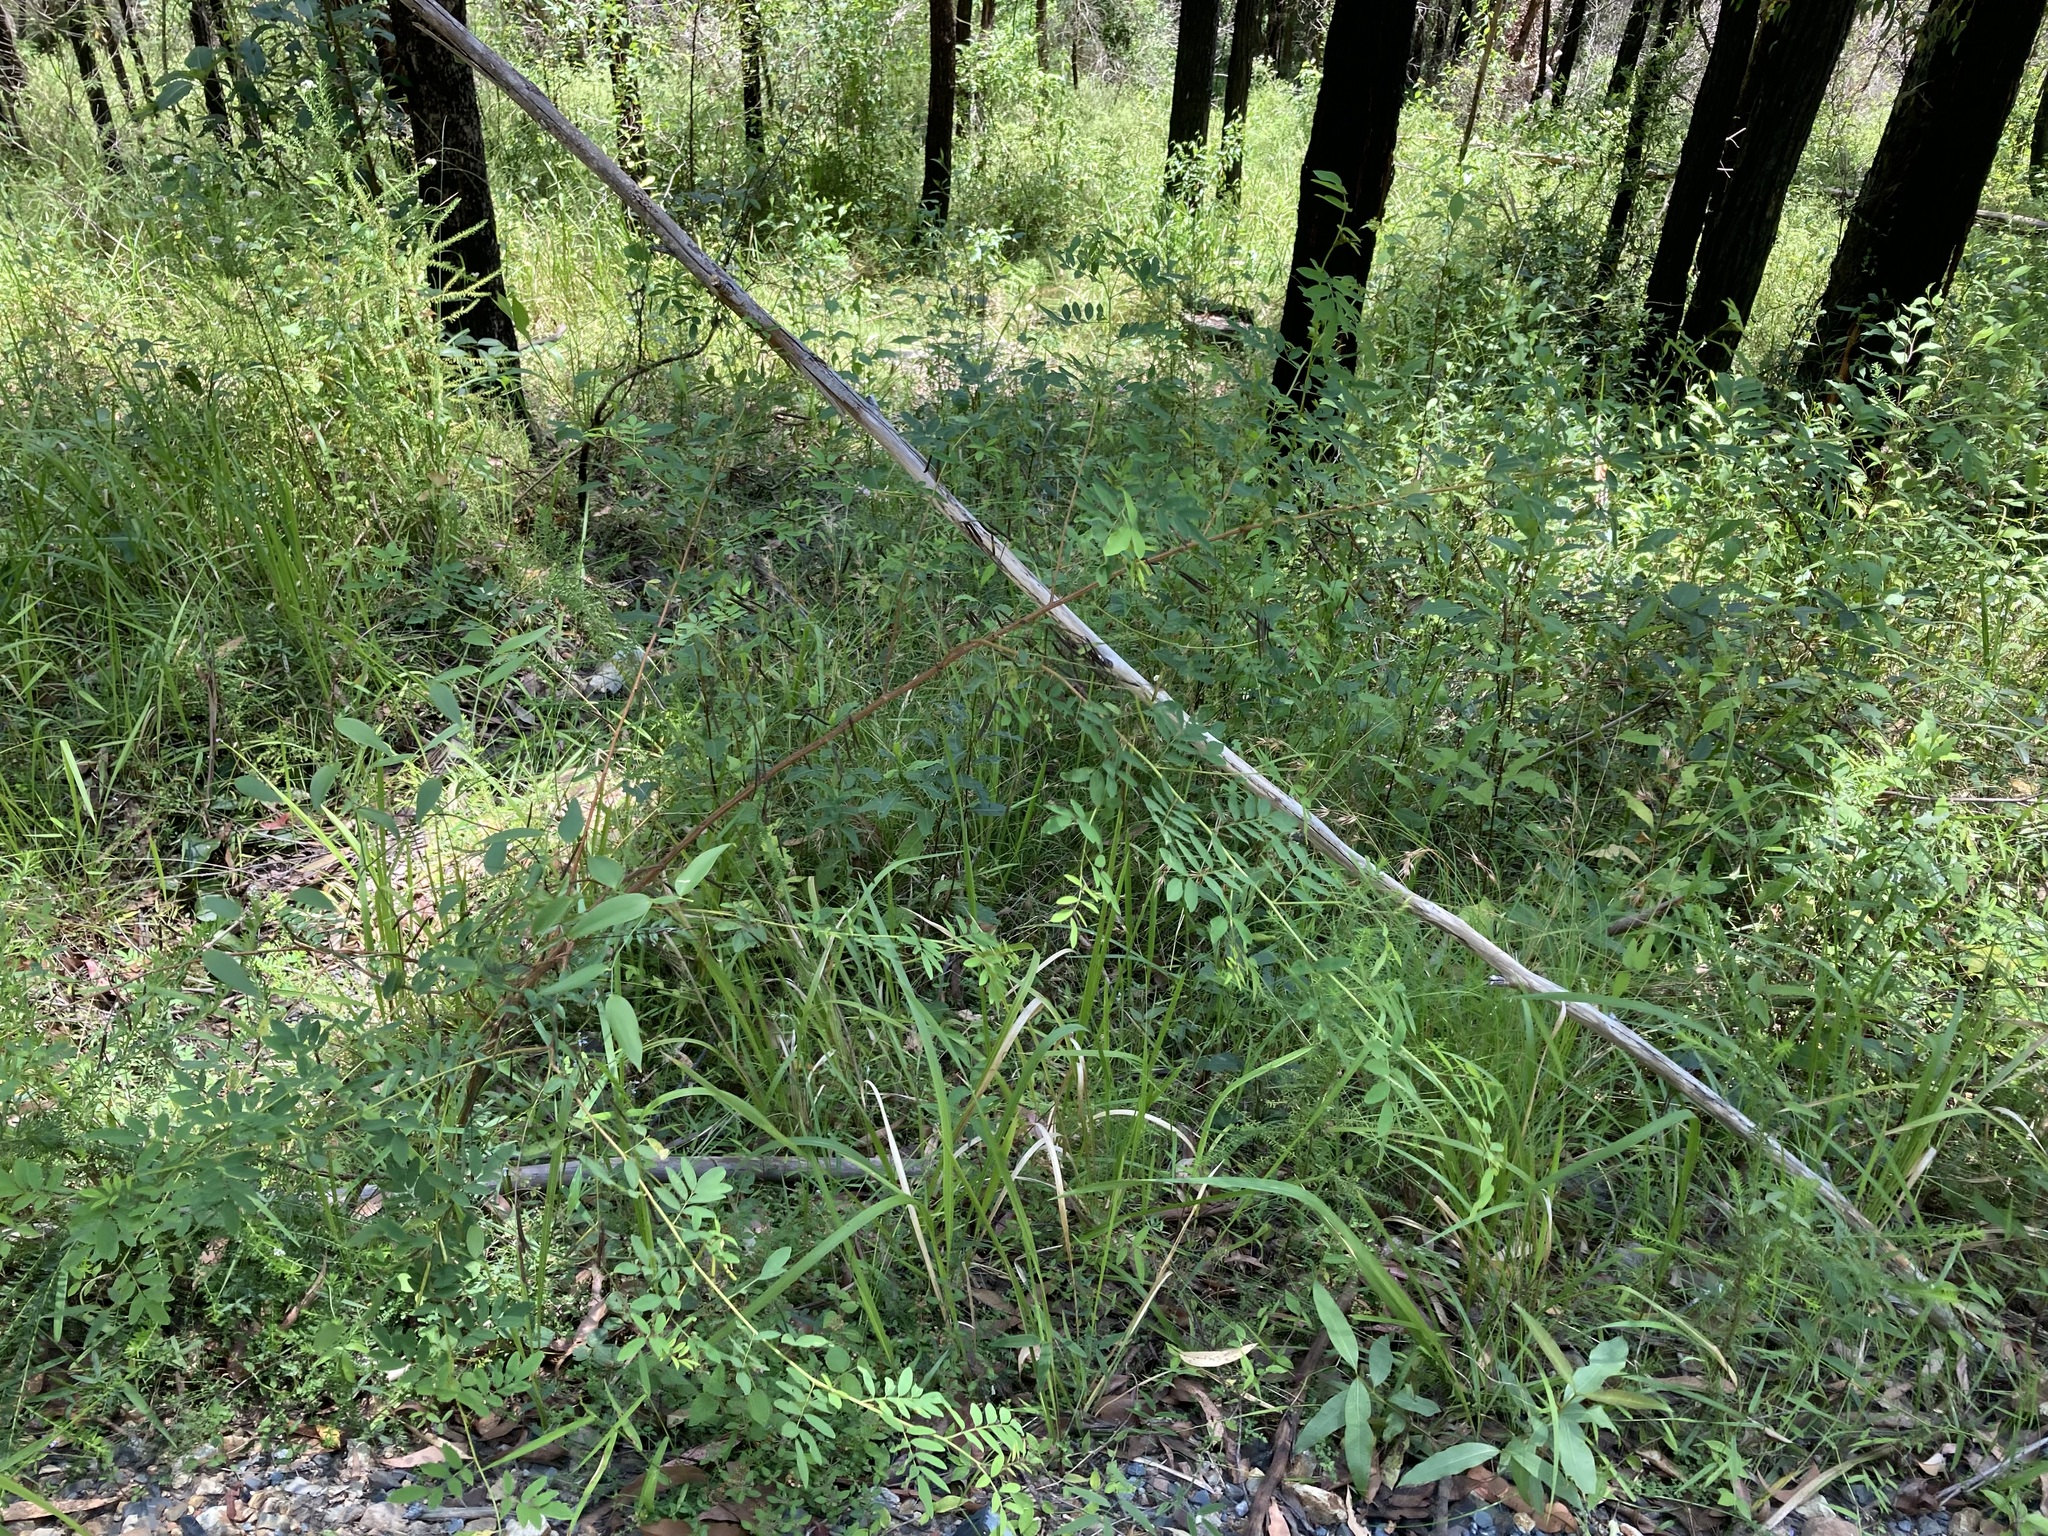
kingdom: Plantae
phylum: Tracheophyta
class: Magnoliopsida
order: Fabales
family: Fabaceae
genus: Indigofera
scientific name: Indigofera australis
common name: Australian indigo
